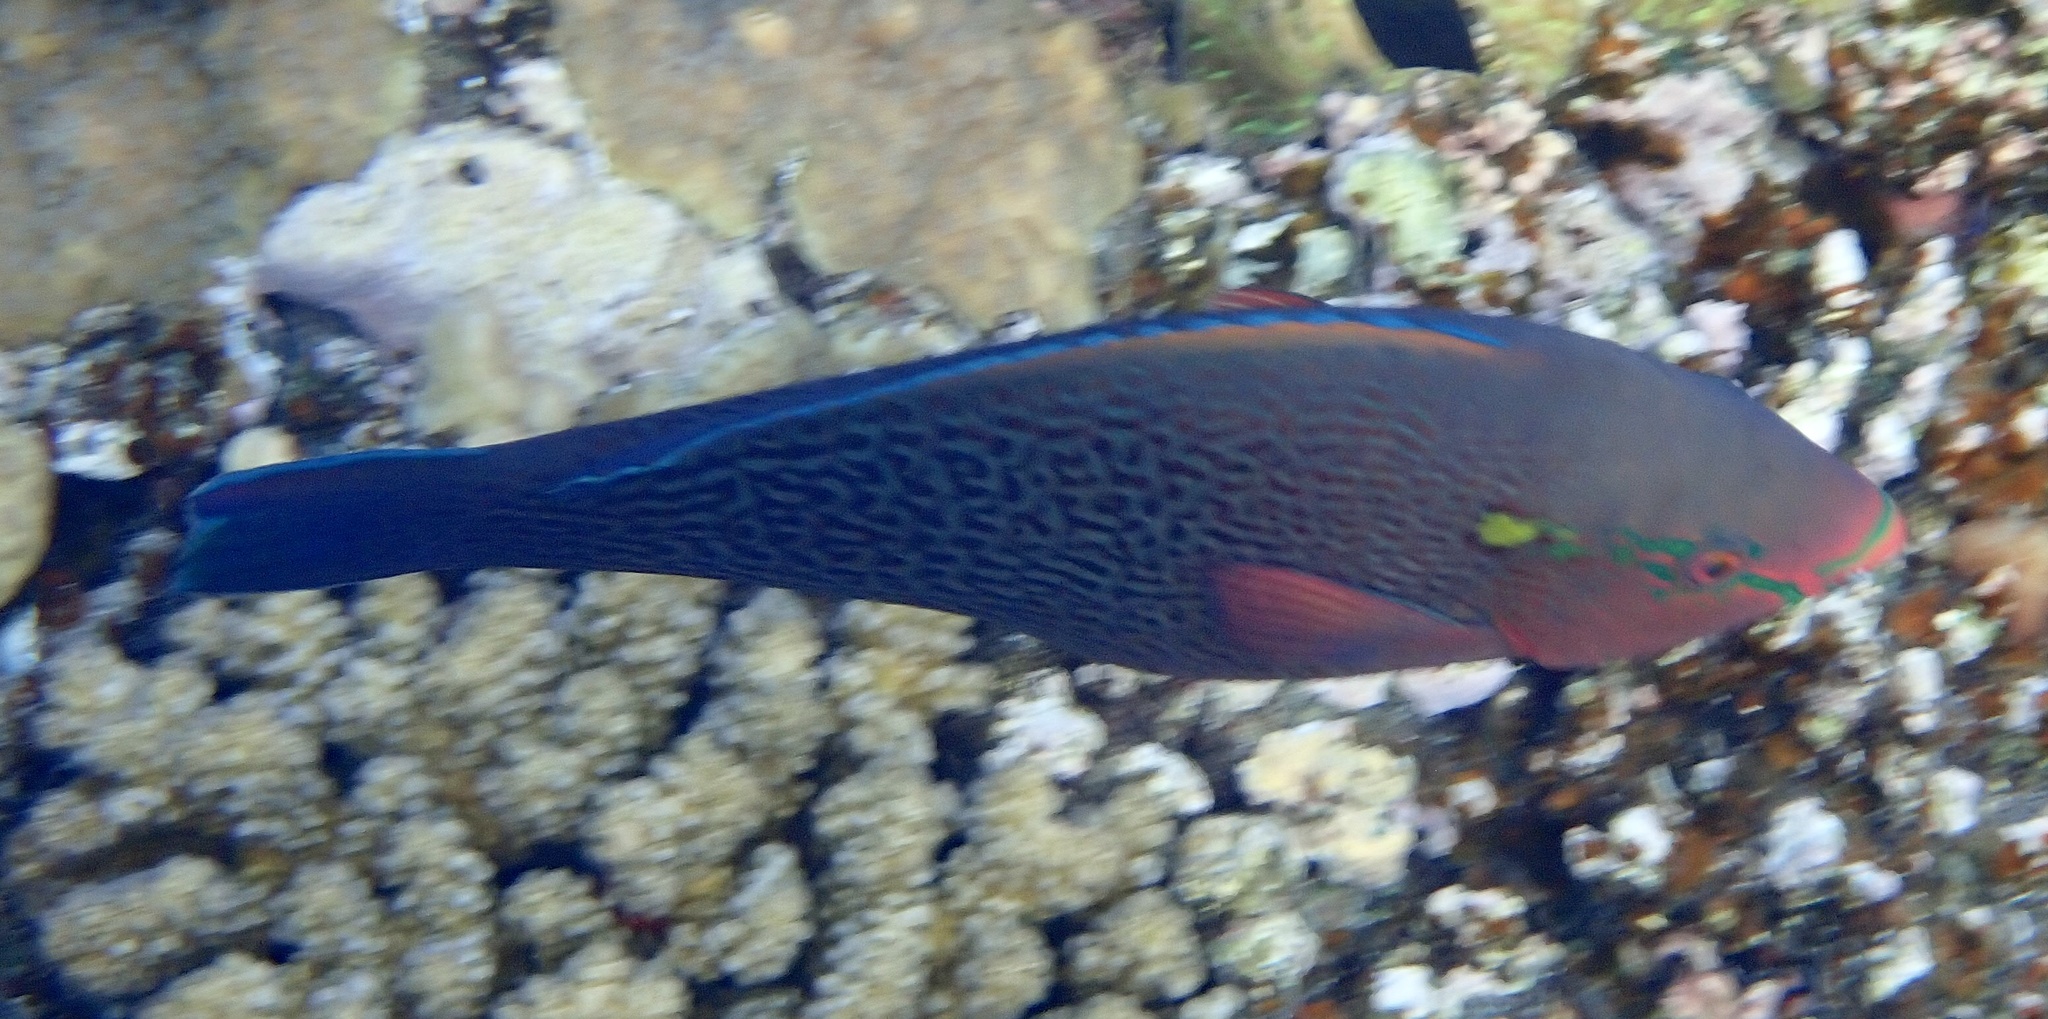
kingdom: Animalia
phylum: Chordata
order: Perciformes
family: Scaridae
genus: Scarus
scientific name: Scarus niger
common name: Dusky parrotfish
